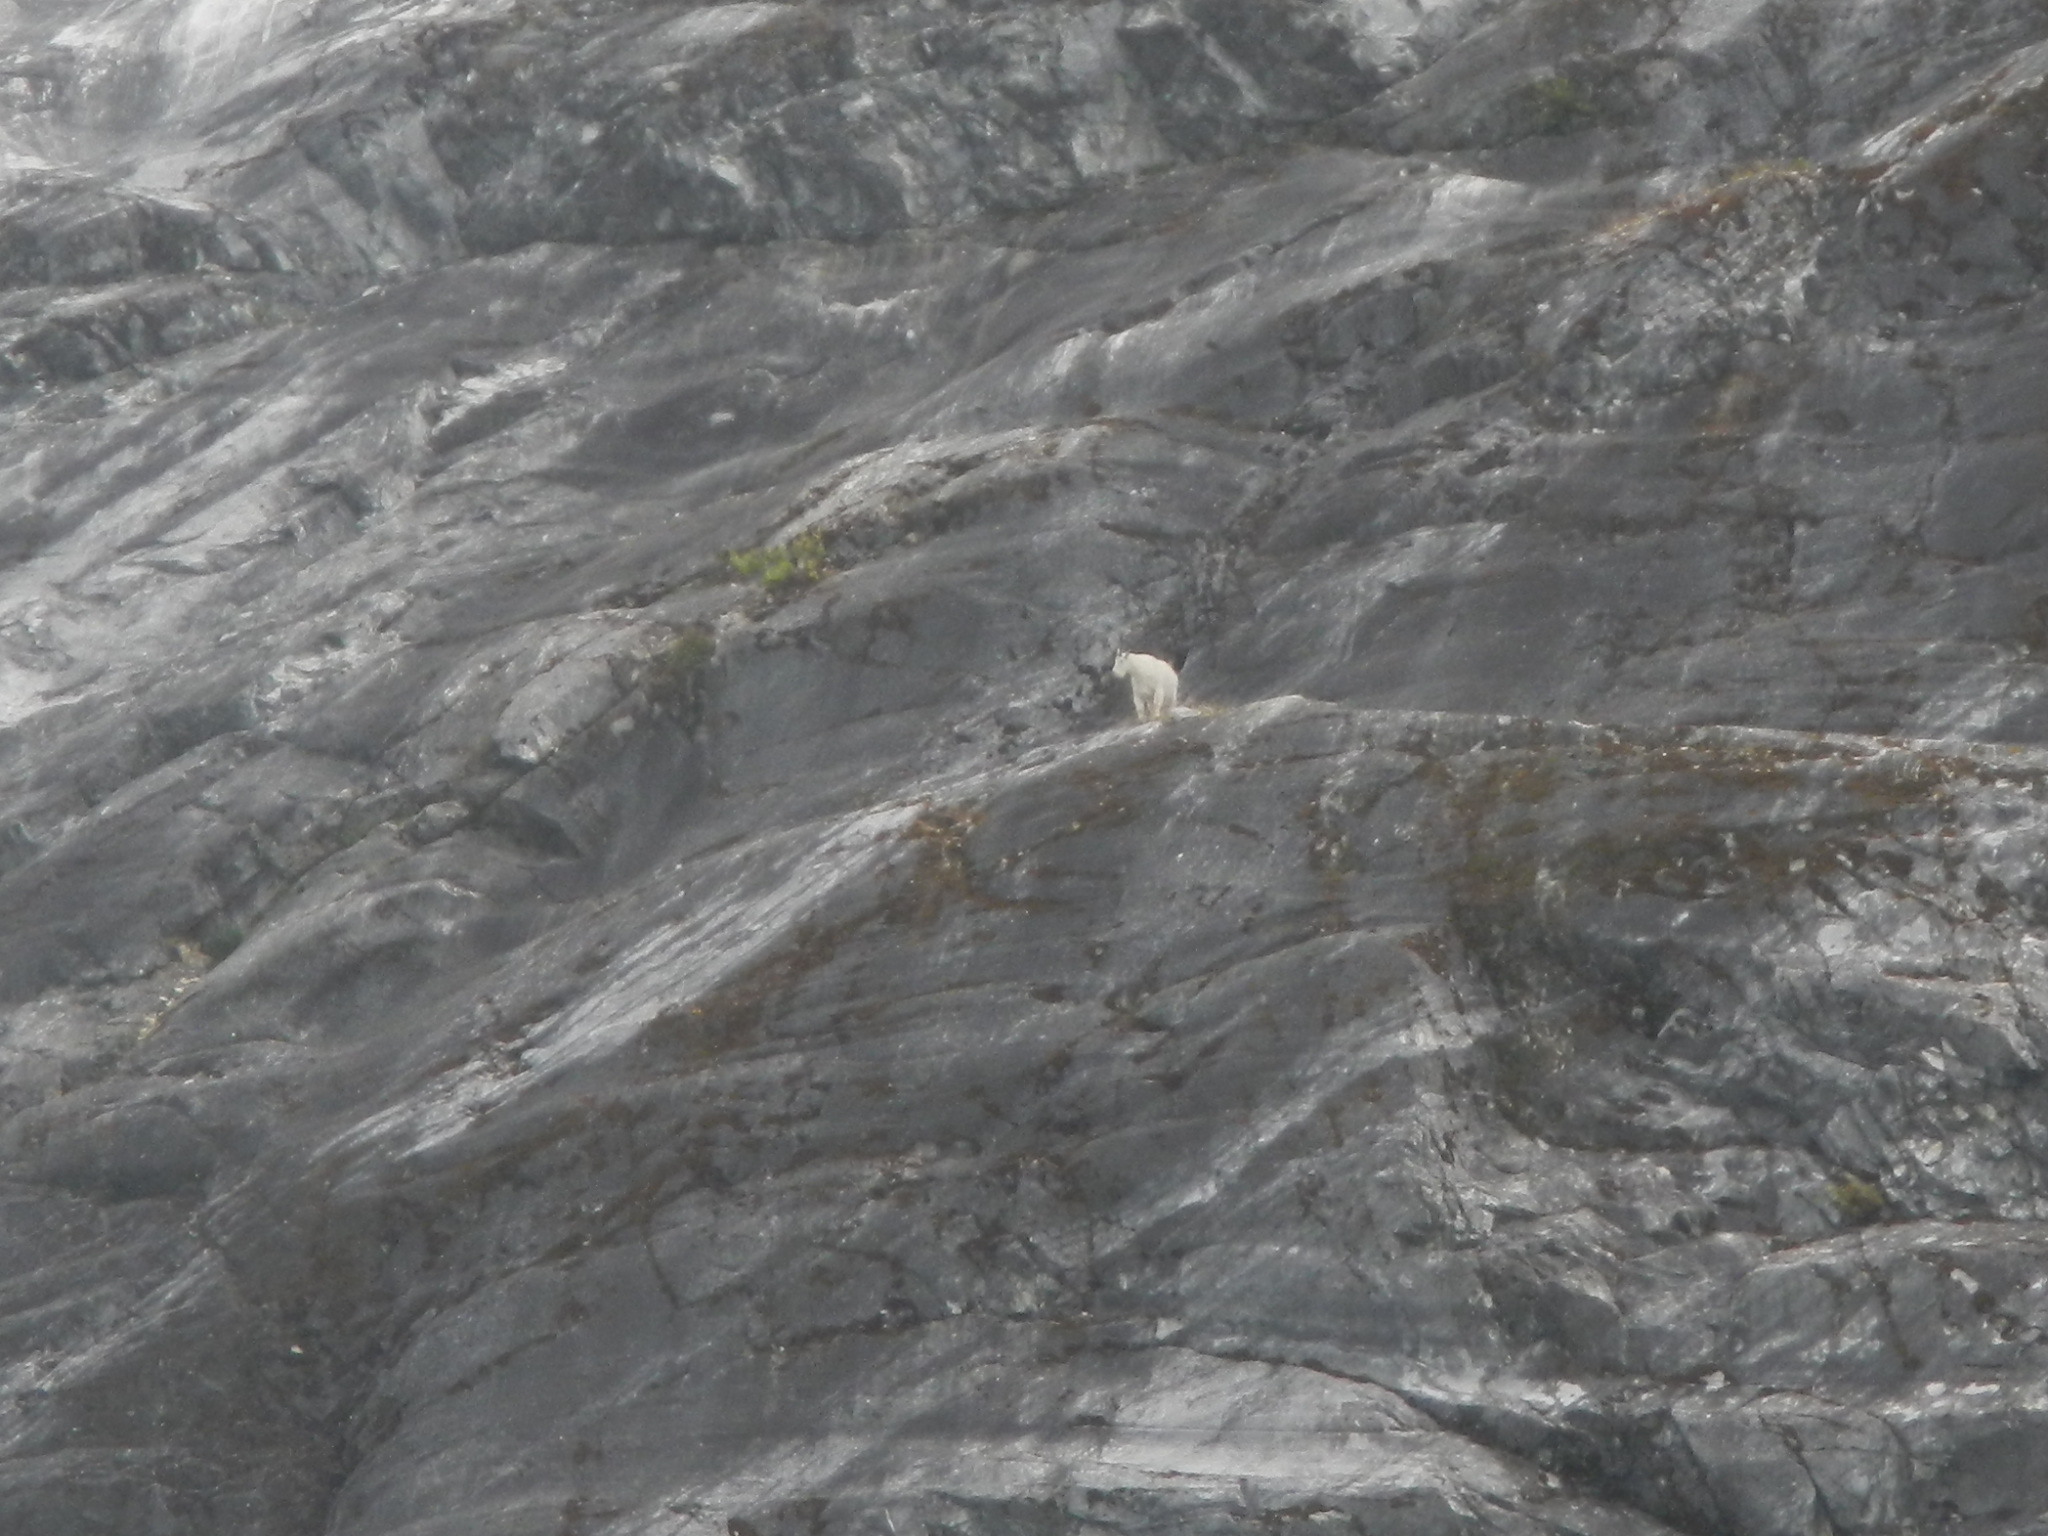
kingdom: Animalia
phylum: Chordata
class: Mammalia
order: Artiodactyla
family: Bovidae
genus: Oreamnos
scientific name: Oreamnos americanus
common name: Mountain goat
